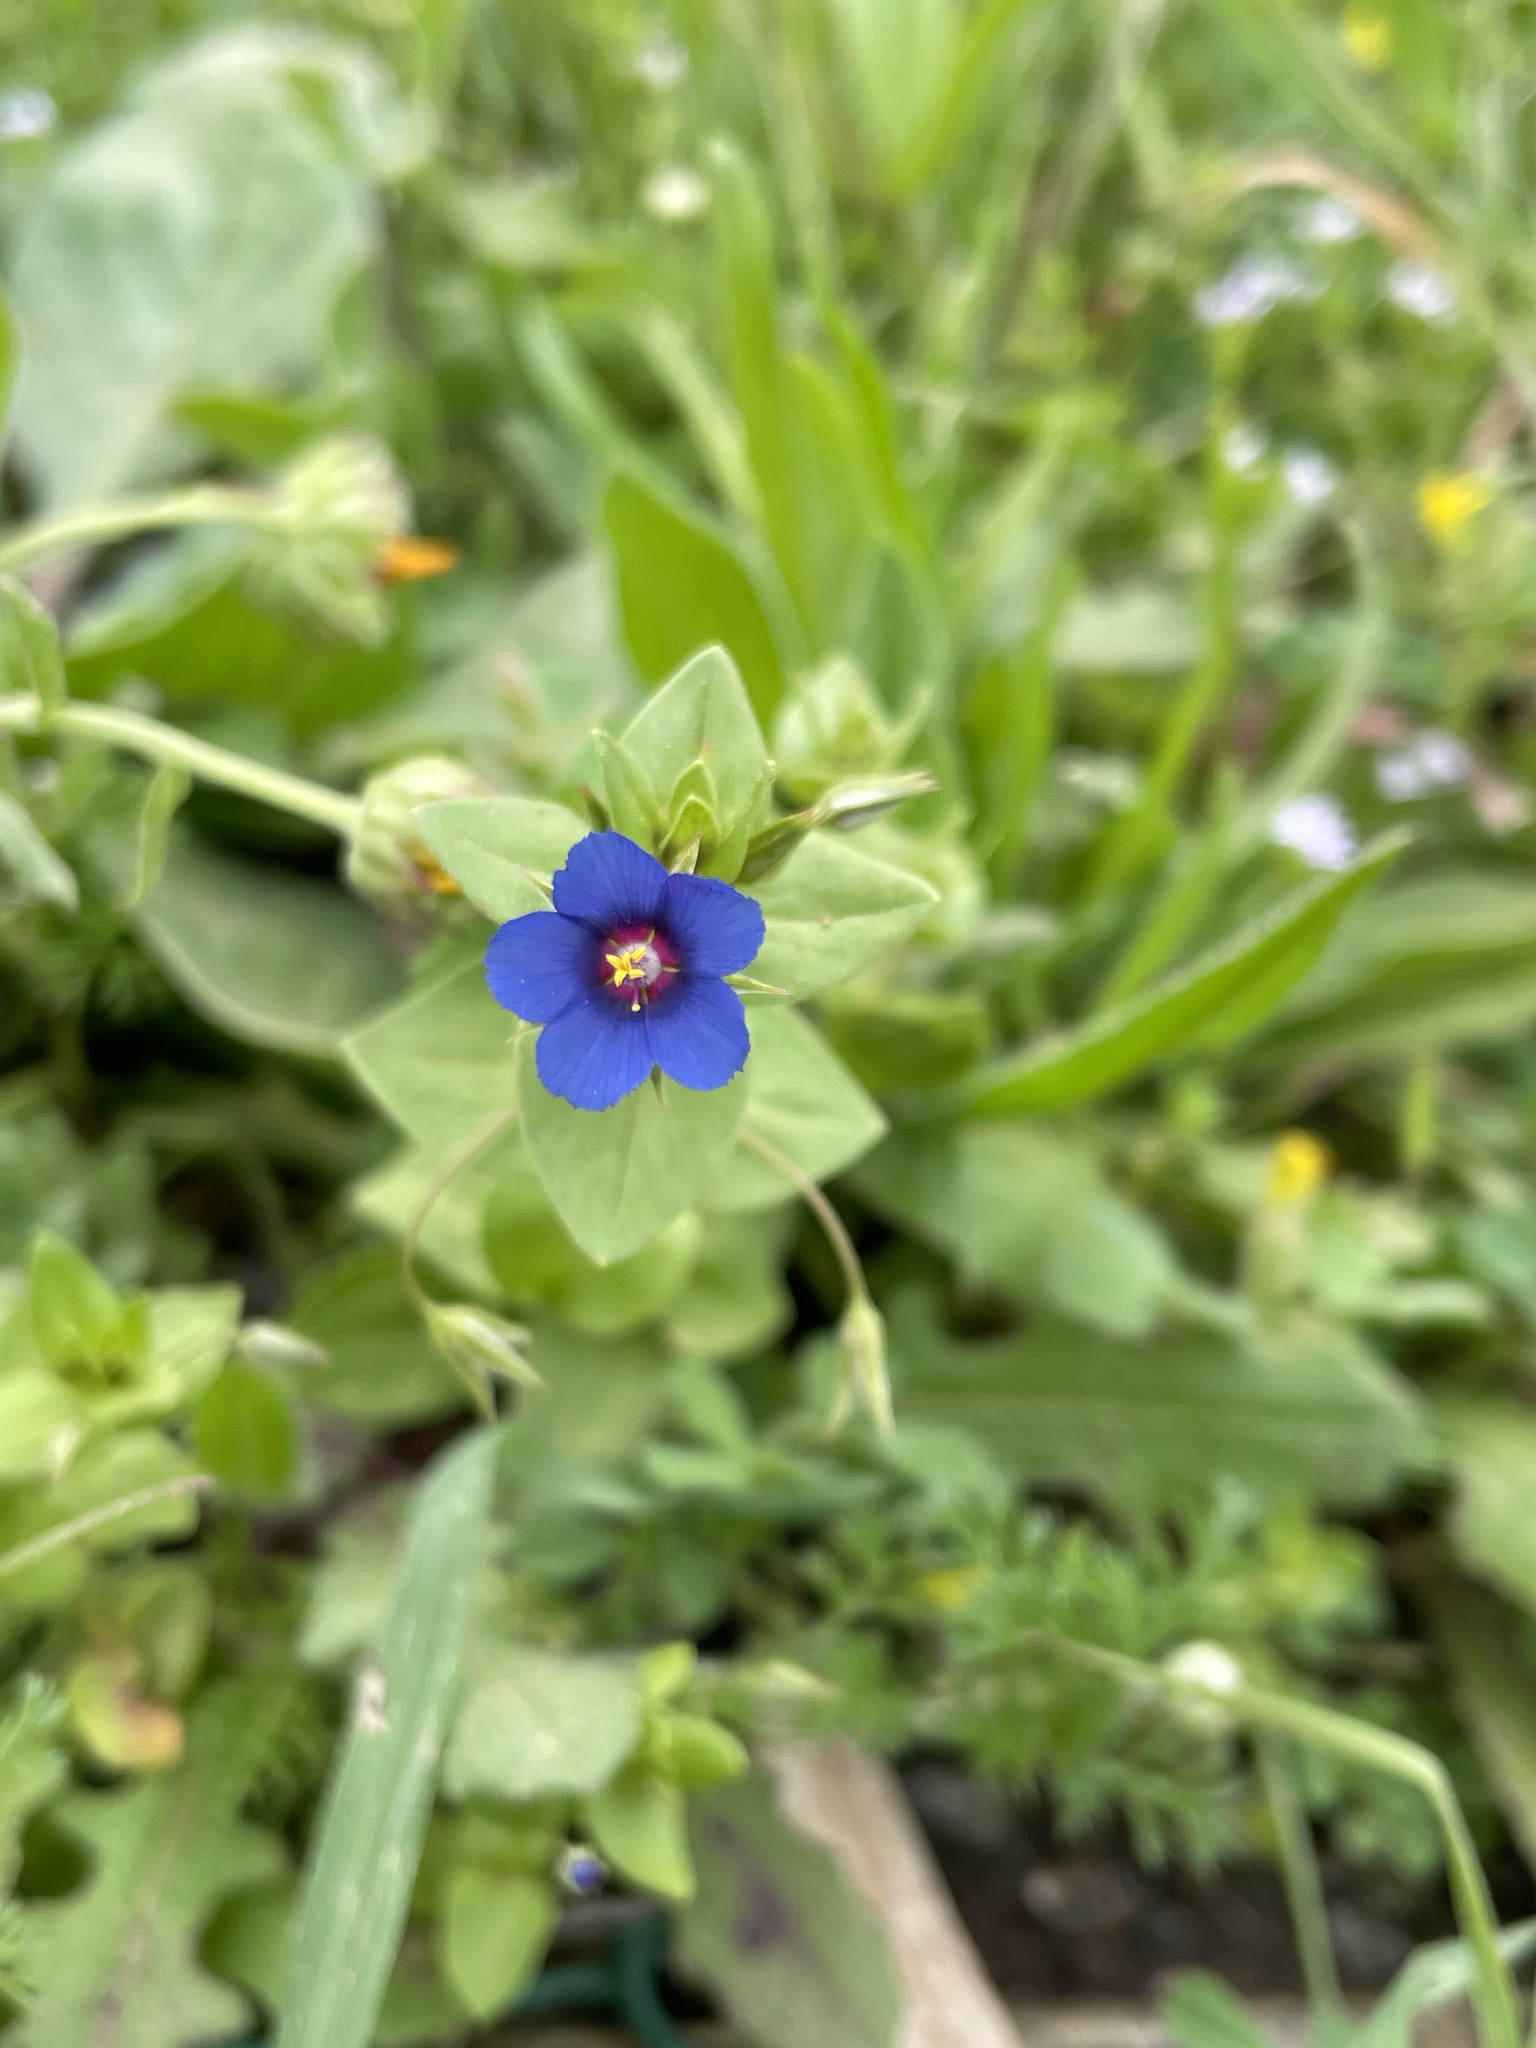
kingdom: Plantae
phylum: Tracheophyta
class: Magnoliopsida
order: Ericales
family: Primulaceae
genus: Lysimachia
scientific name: Lysimachia loeflingii
